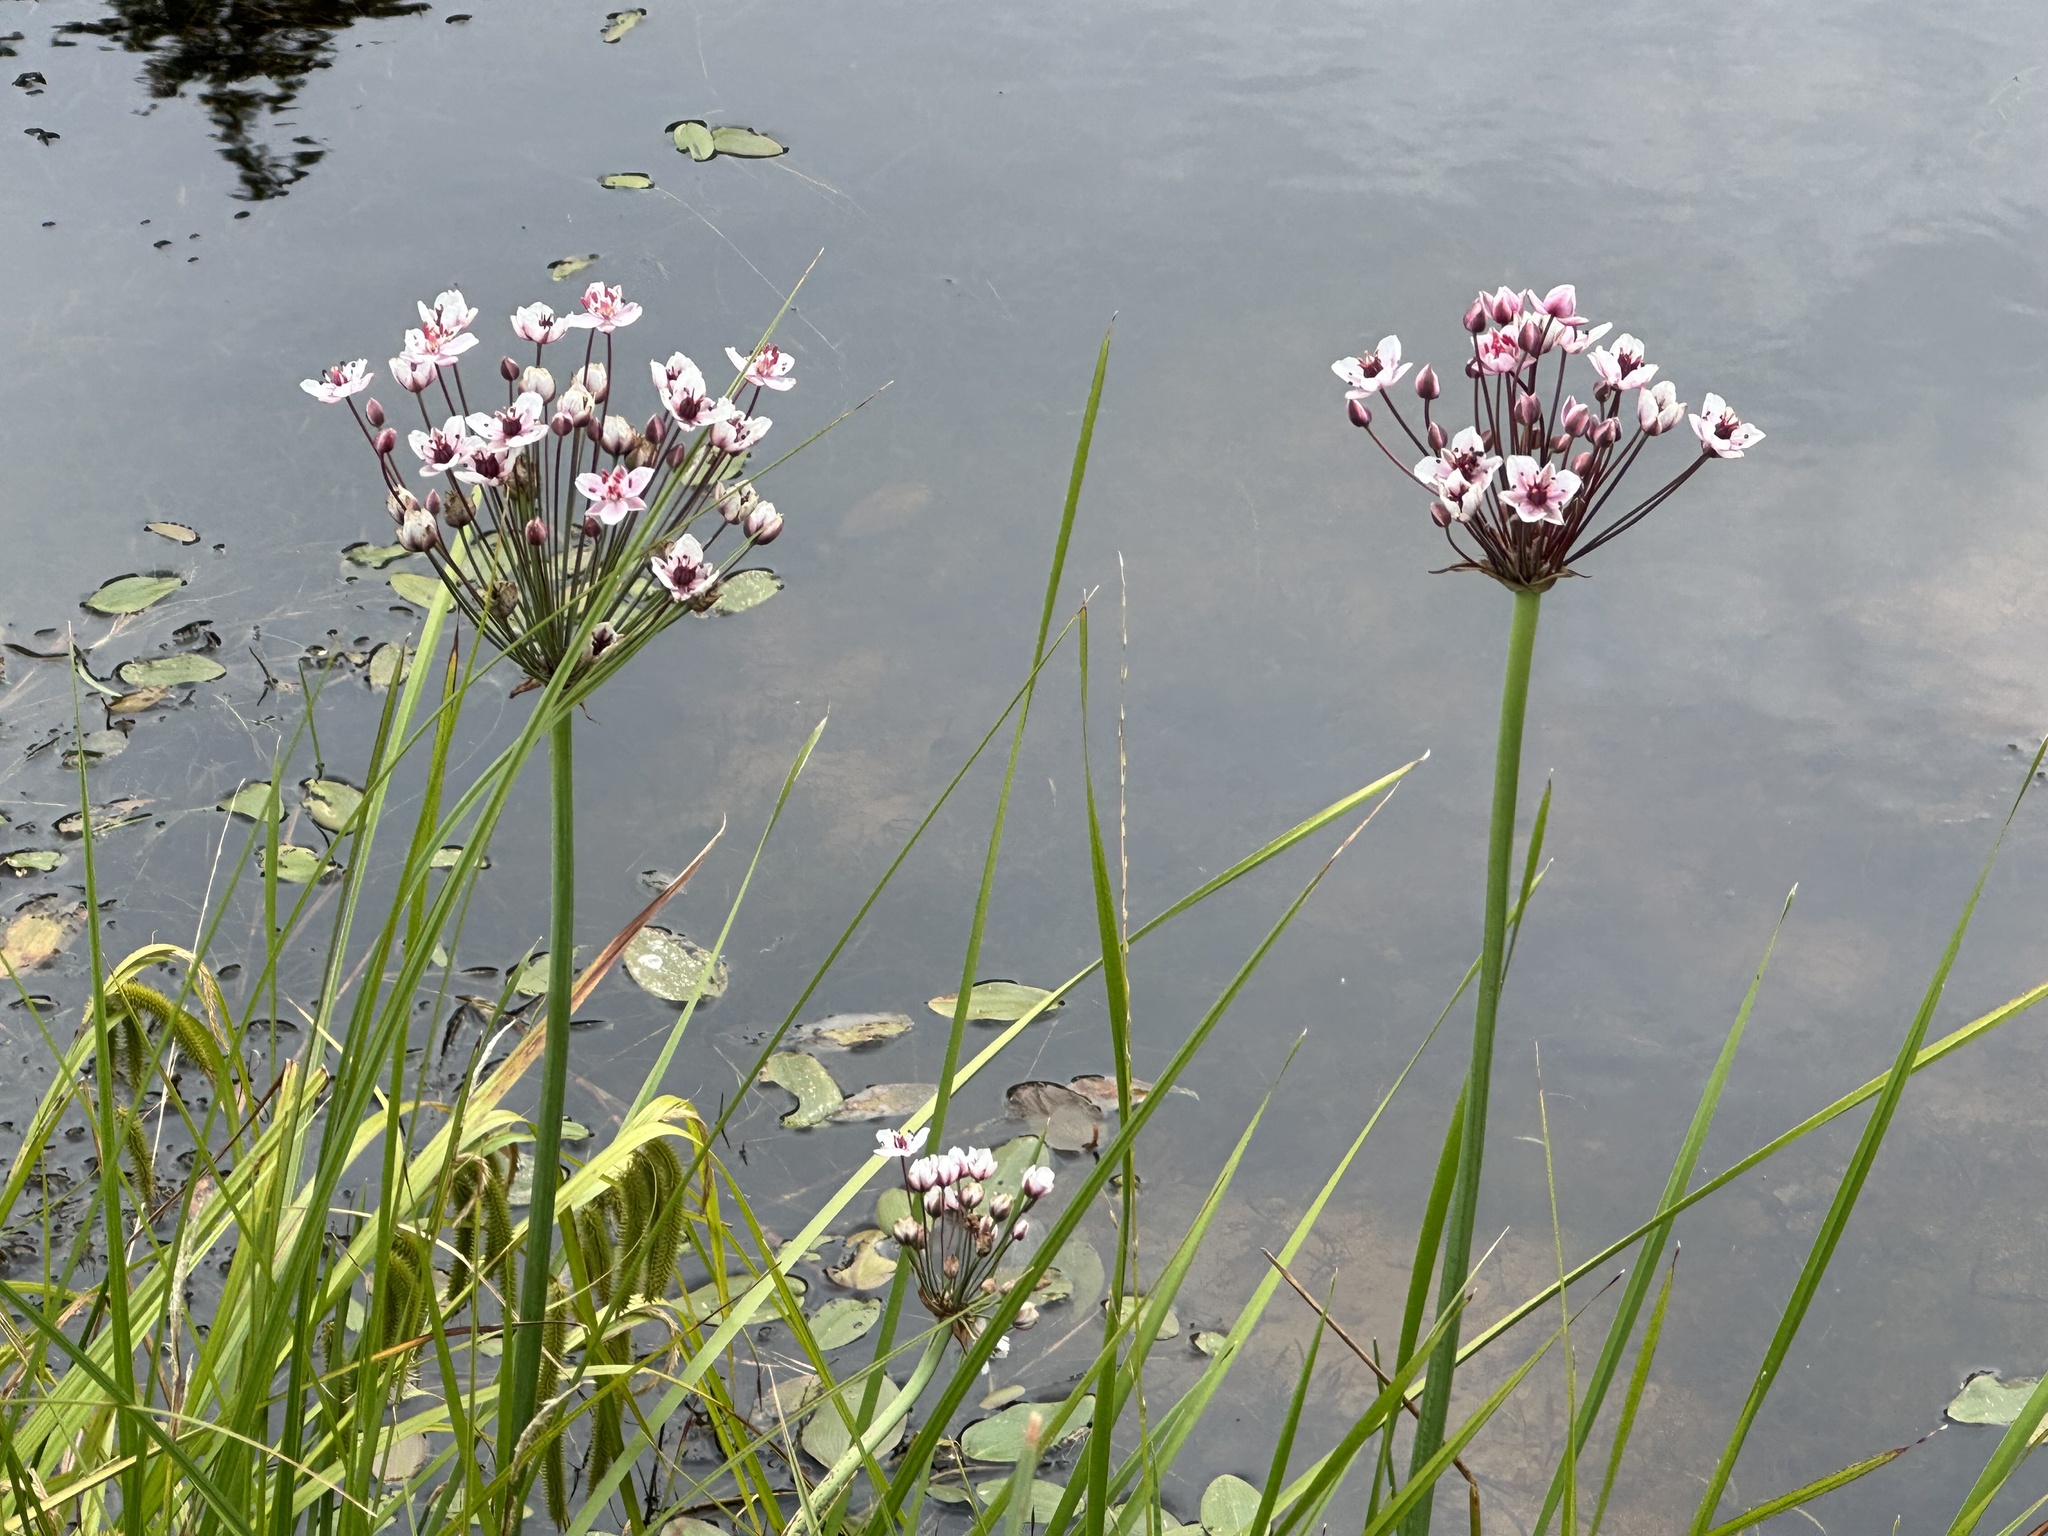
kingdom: Plantae
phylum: Tracheophyta
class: Liliopsida
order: Alismatales
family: Butomaceae
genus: Butomus
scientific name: Butomus umbellatus
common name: Flowering-rush
